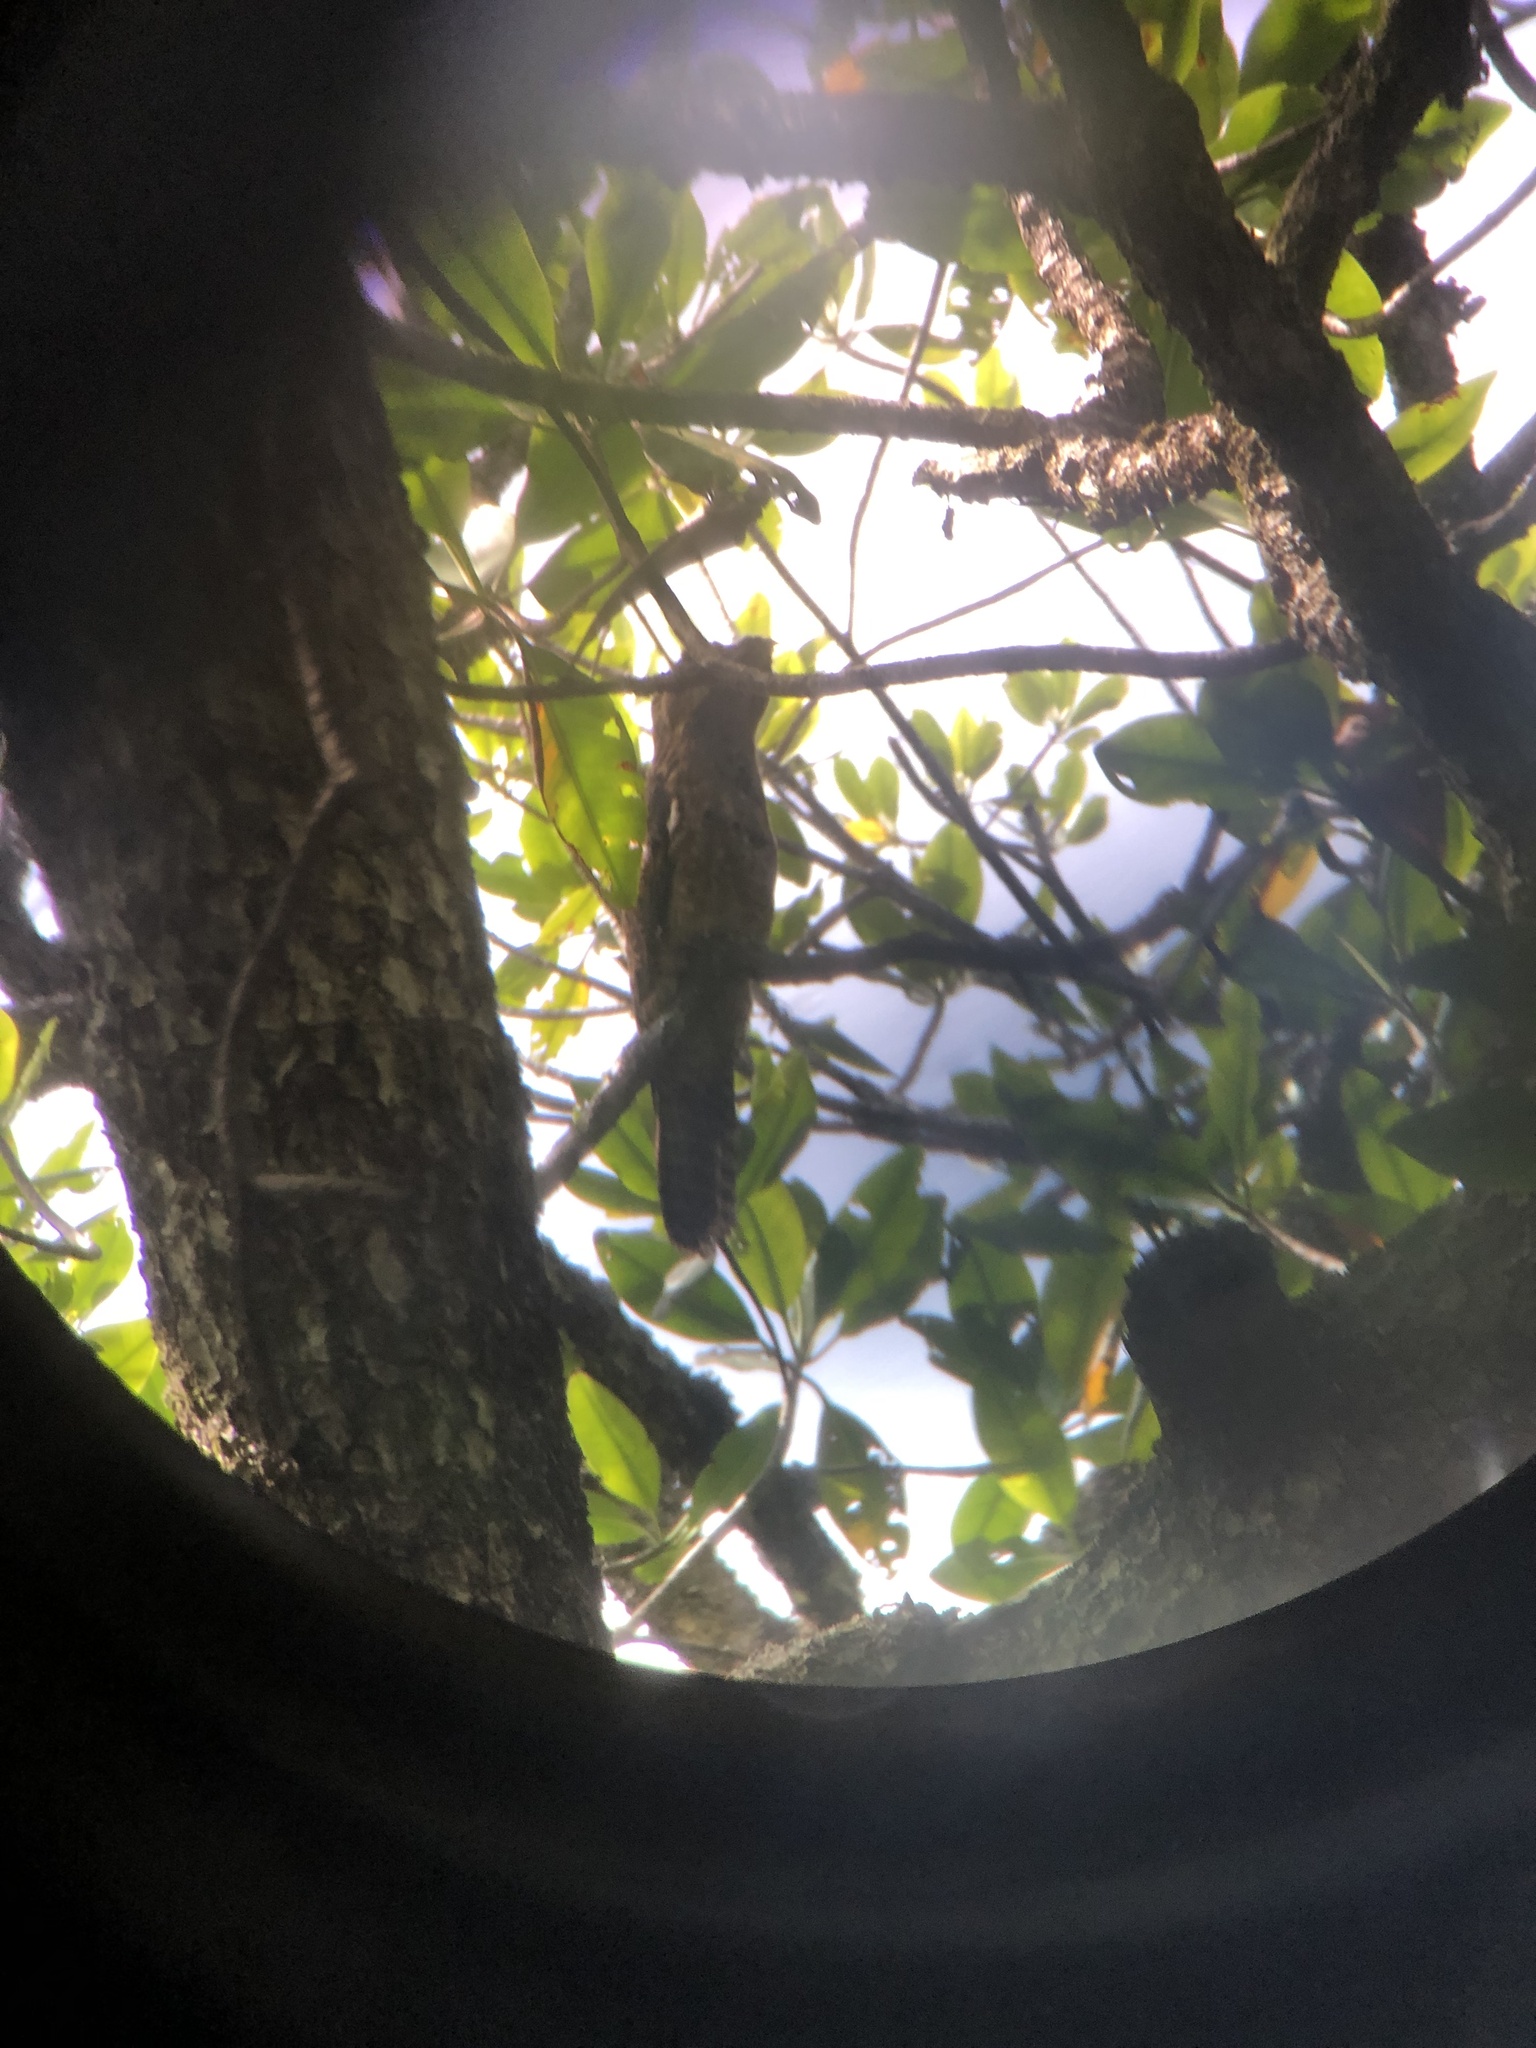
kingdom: Animalia
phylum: Chordata
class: Aves
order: Nyctibiiformes
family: Nyctibiidae
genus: Nyctibius
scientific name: Nyctibius griseus
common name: Common potoo
